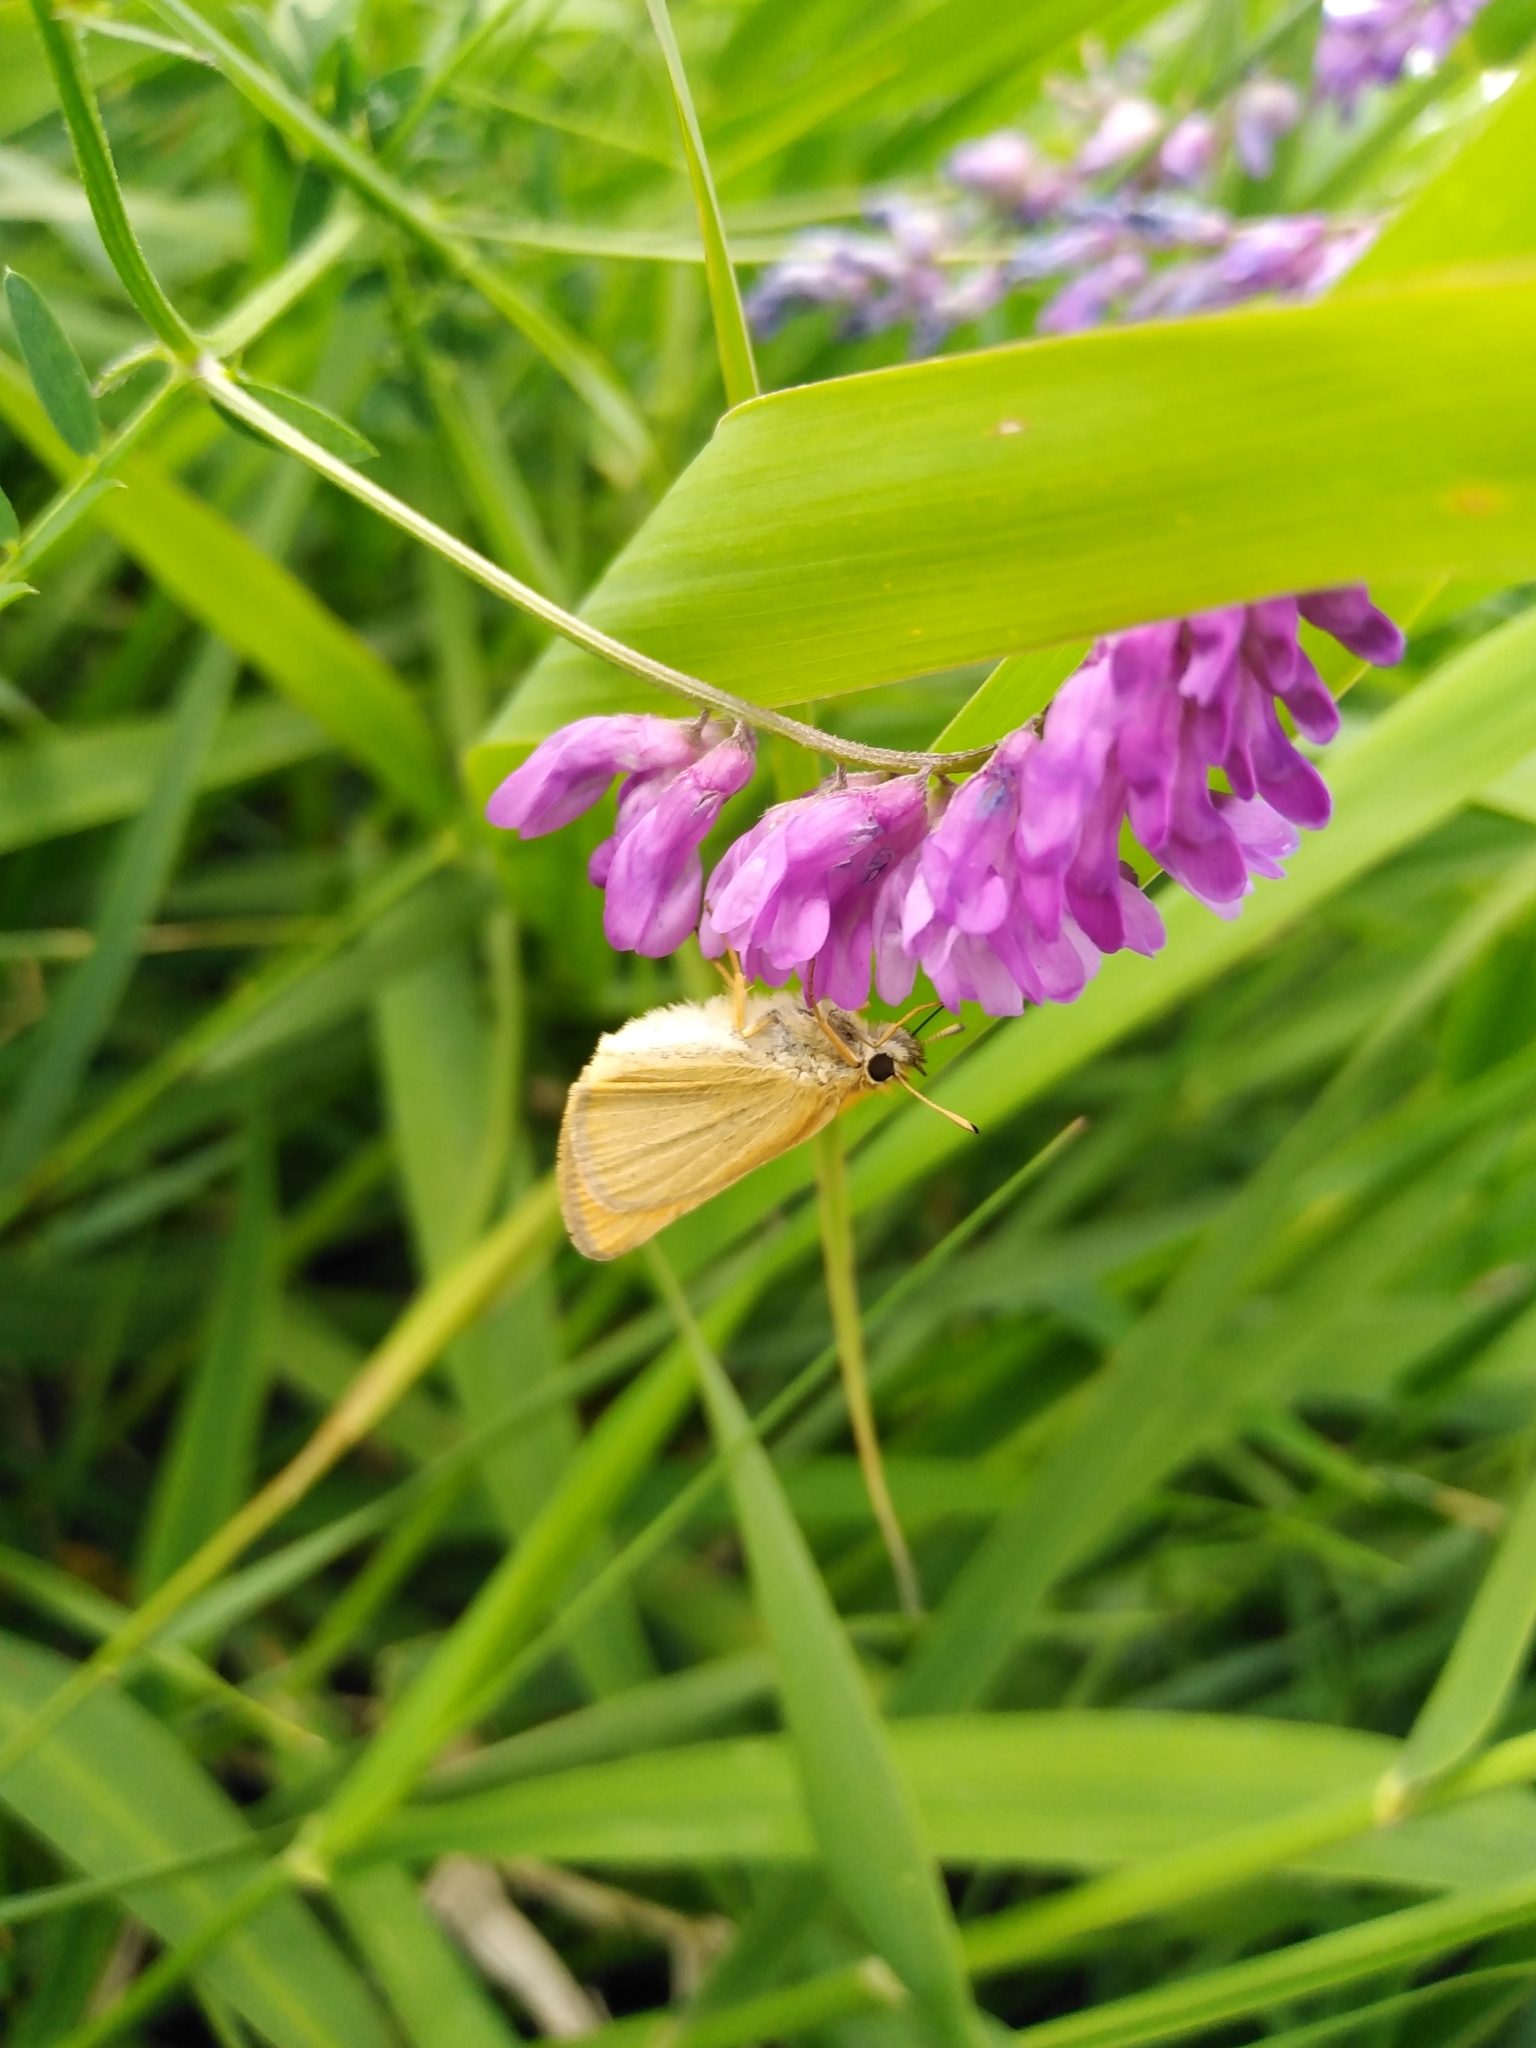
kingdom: Animalia
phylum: Arthropoda
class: Insecta
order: Lepidoptera
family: Hesperiidae
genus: Thymelicus
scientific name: Thymelicus lineola
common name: Essex skipper
